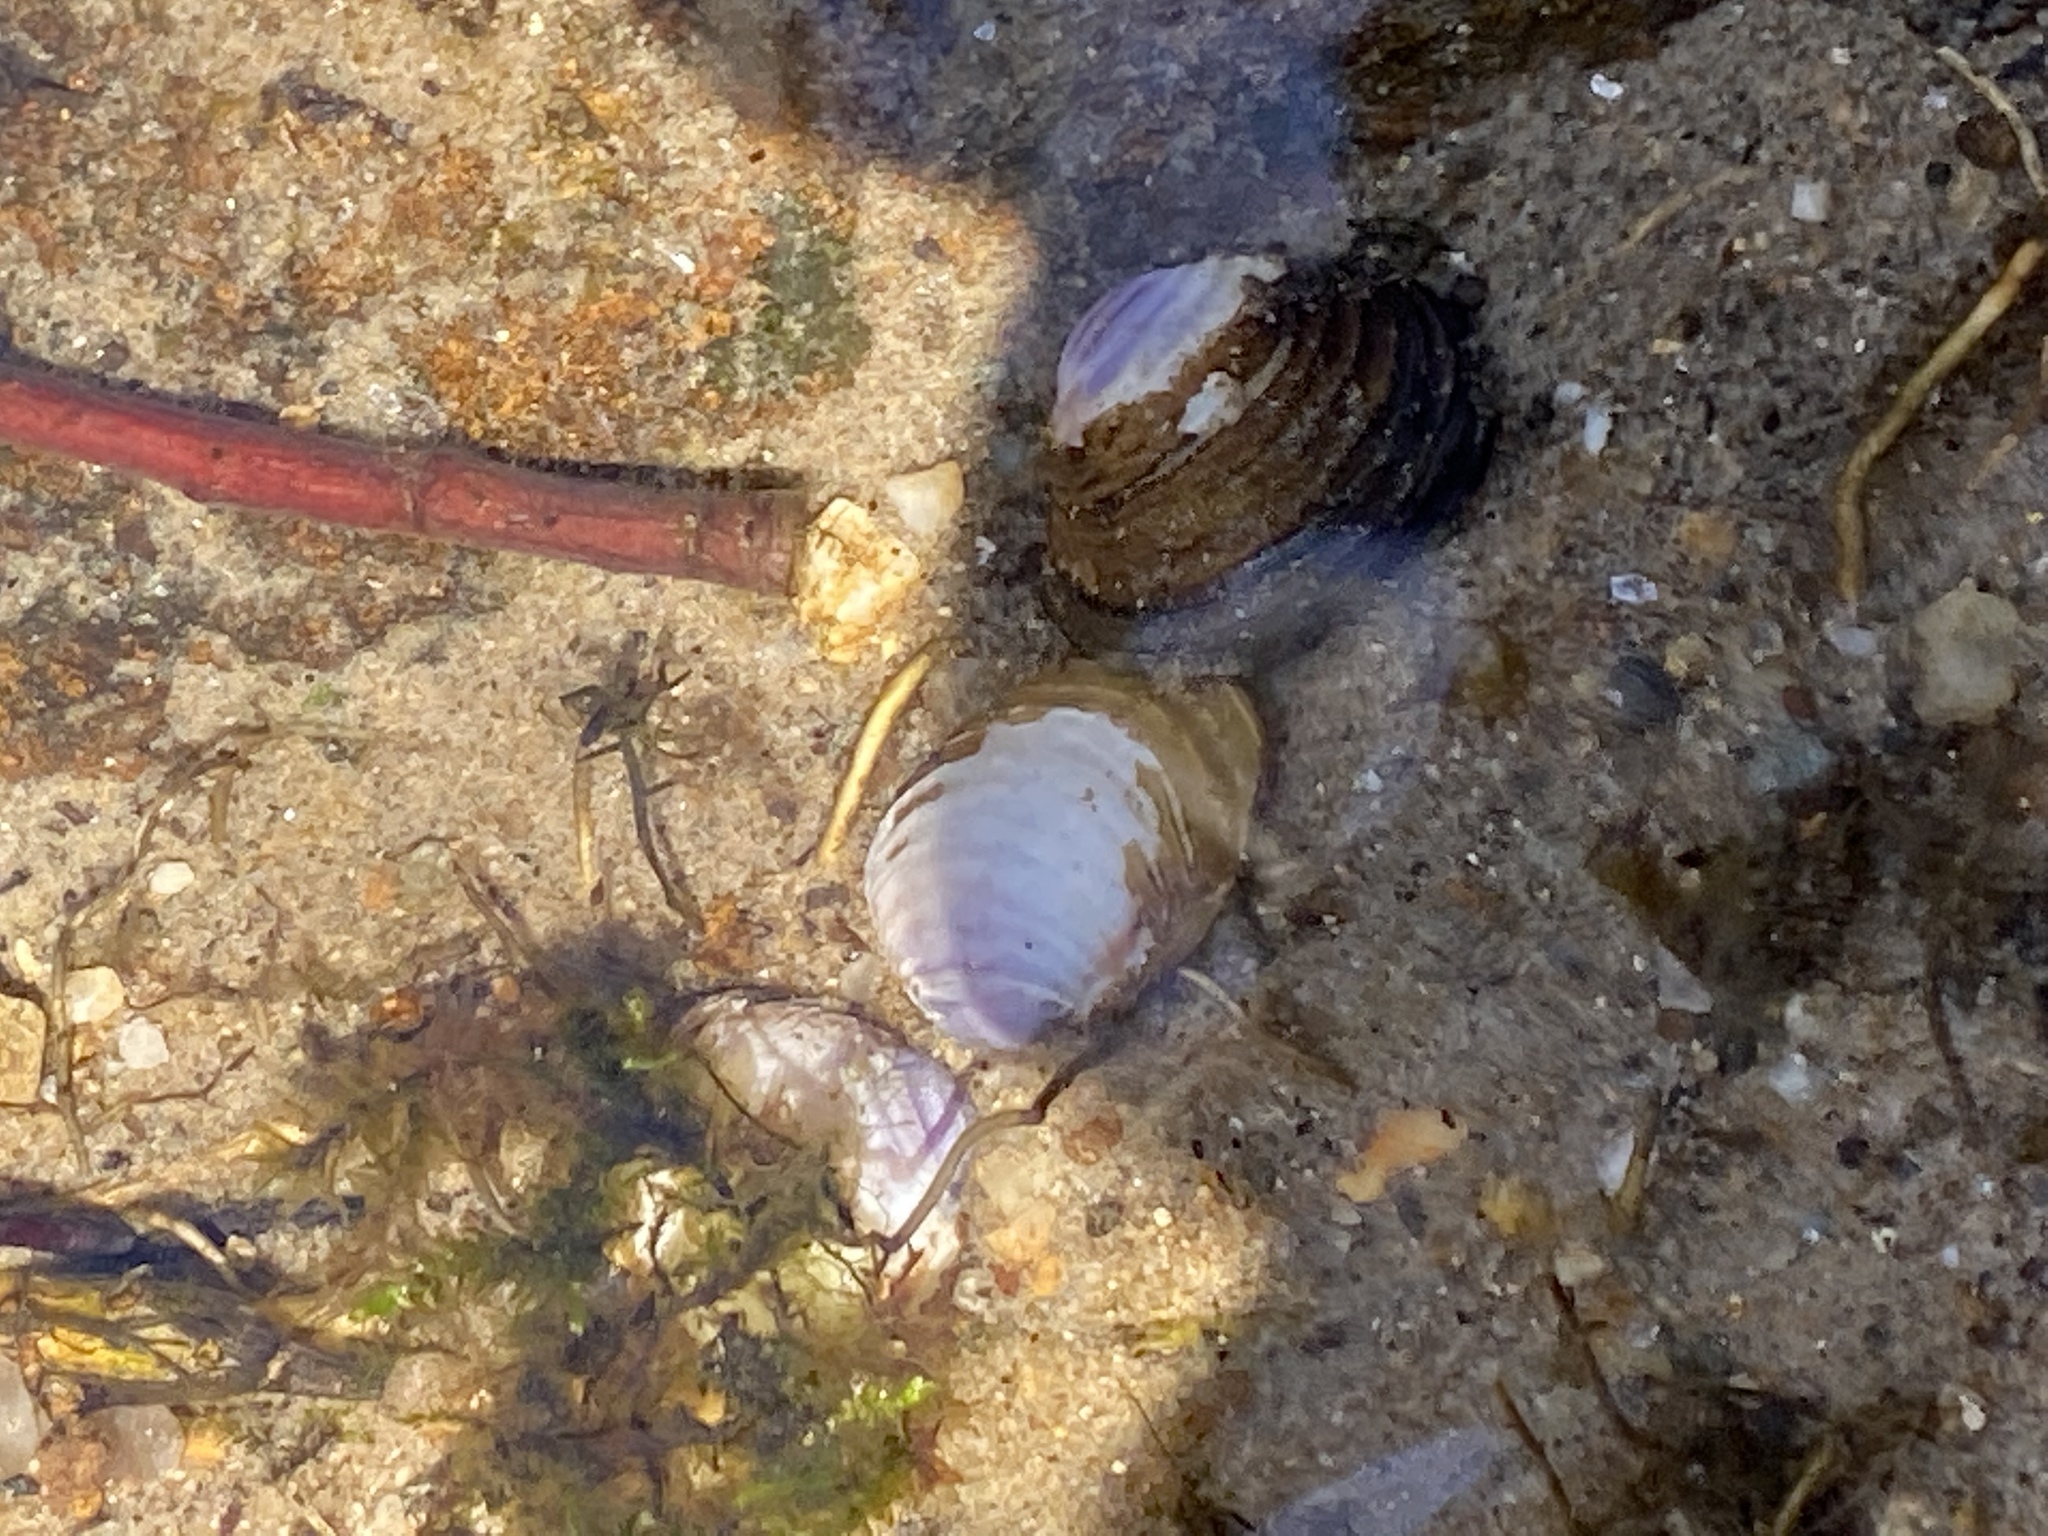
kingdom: Animalia
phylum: Mollusca
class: Bivalvia
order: Venerida
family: Cyrenidae
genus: Corbicula
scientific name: Corbicula fluminea
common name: Asian clam
